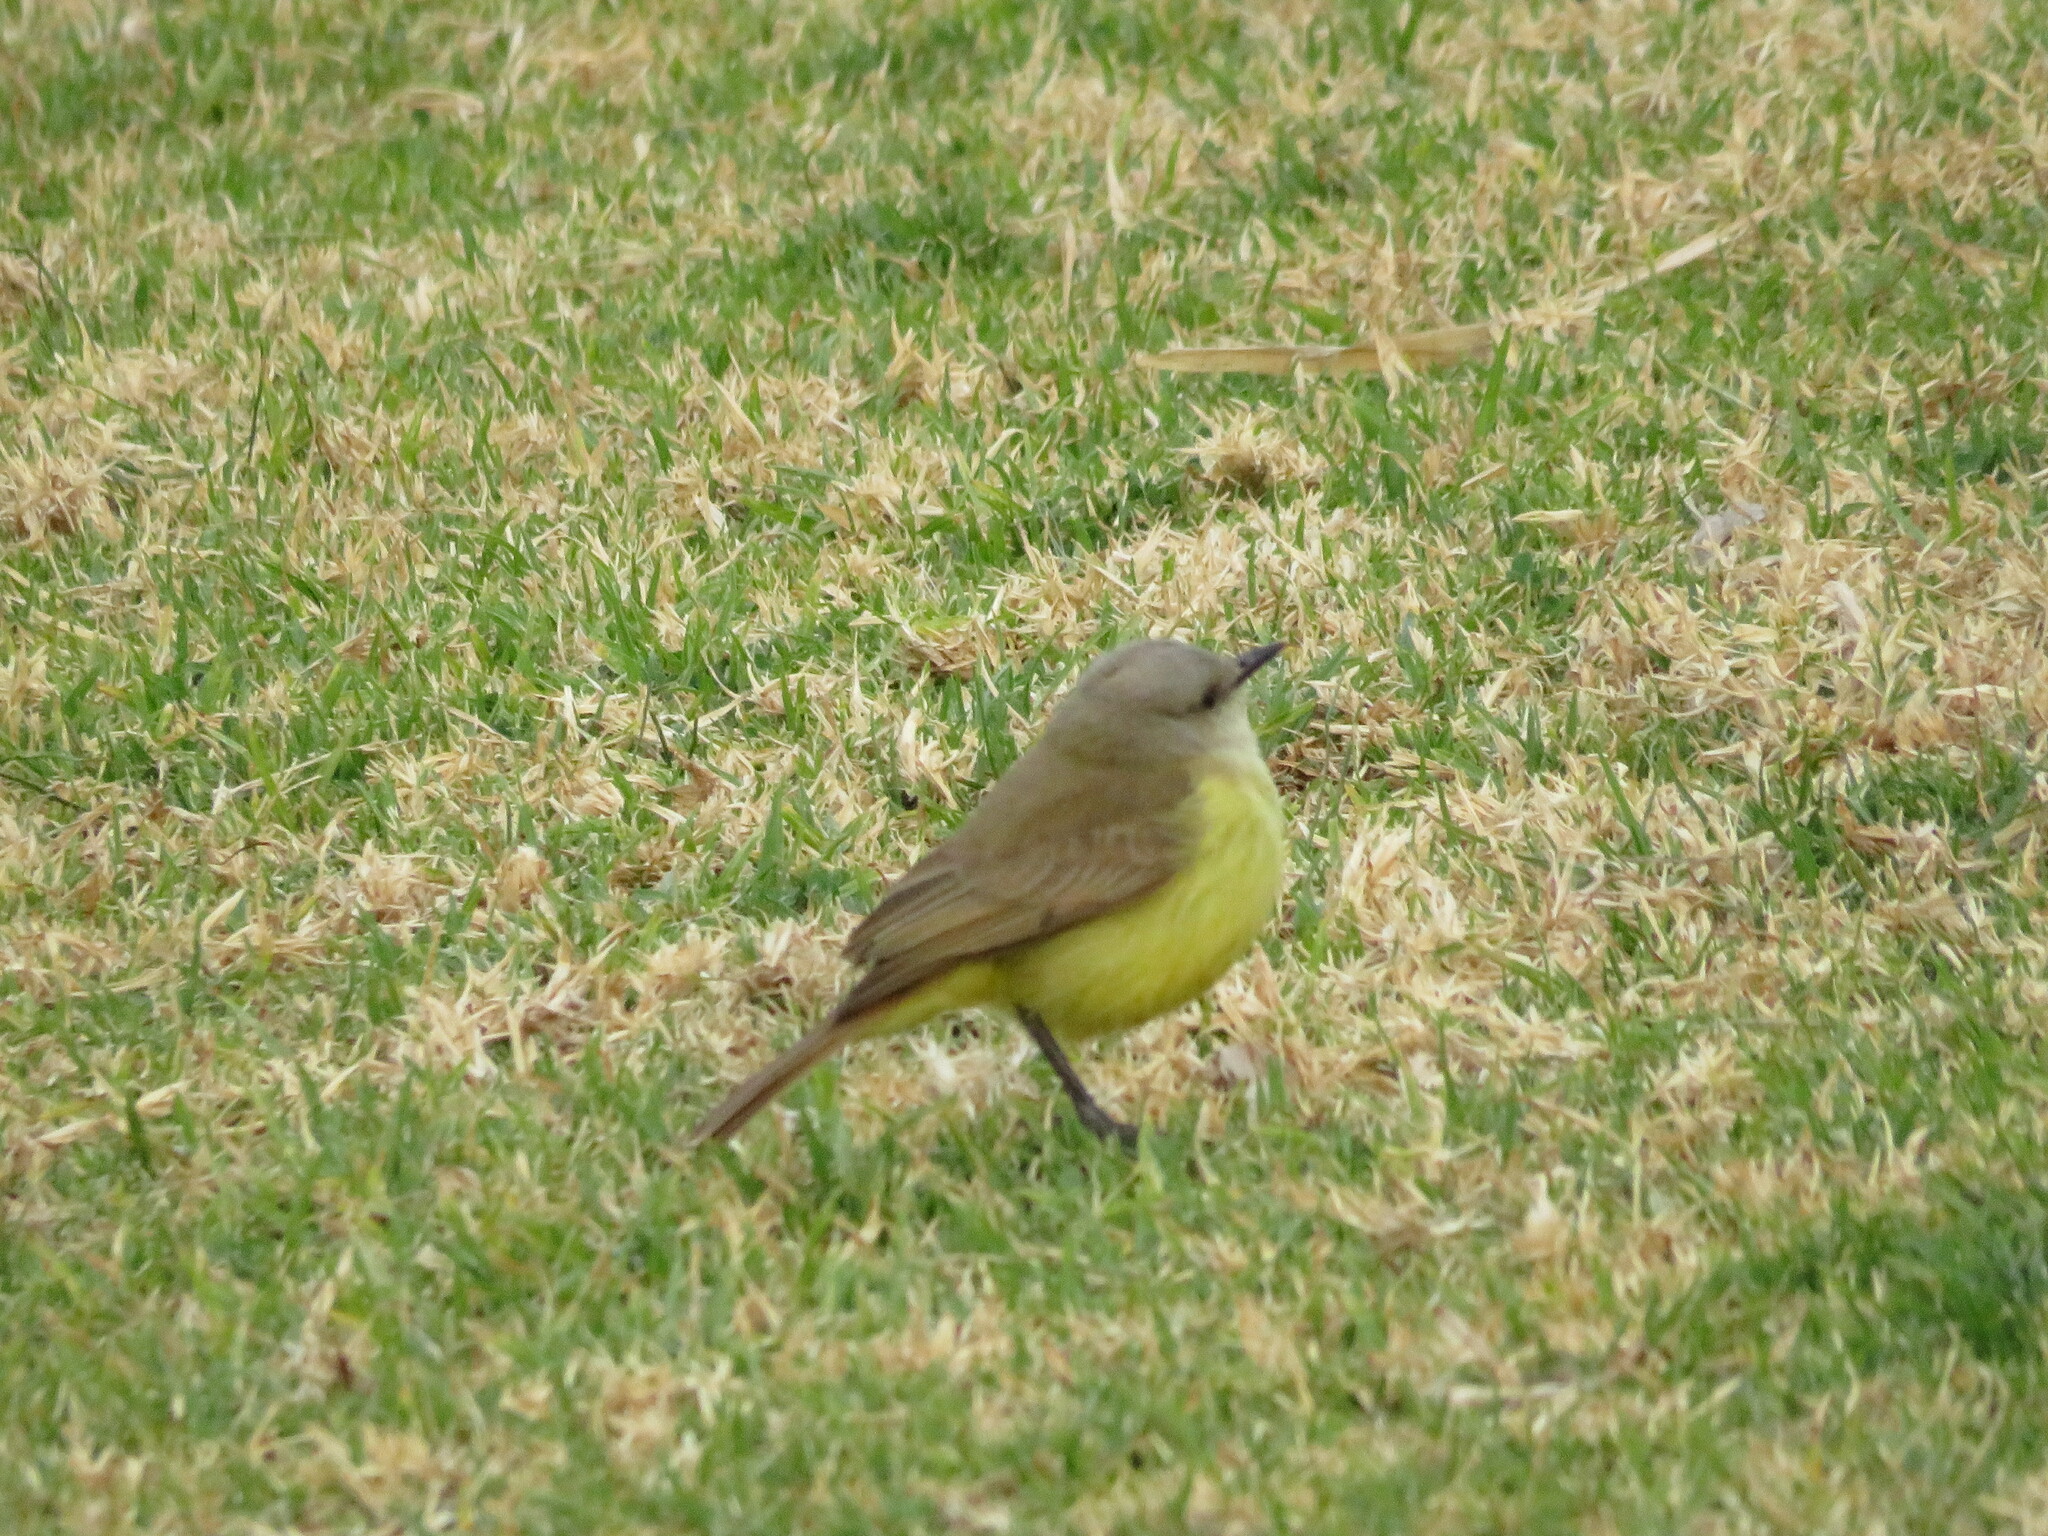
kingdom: Animalia
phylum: Chordata
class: Aves
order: Passeriformes
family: Tyrannidae
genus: Machetornis
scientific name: Machetornis rixosa
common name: Cattle tyrant
